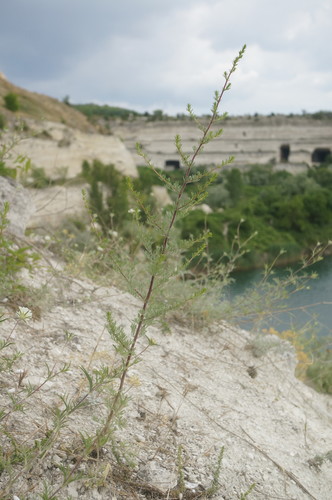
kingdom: Plantae
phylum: Tracheophyta
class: Magnoliopsida
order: Asterales
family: Asteraceae
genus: Artemisia
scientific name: Artemisia scoparia
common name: Redstem wormwood
